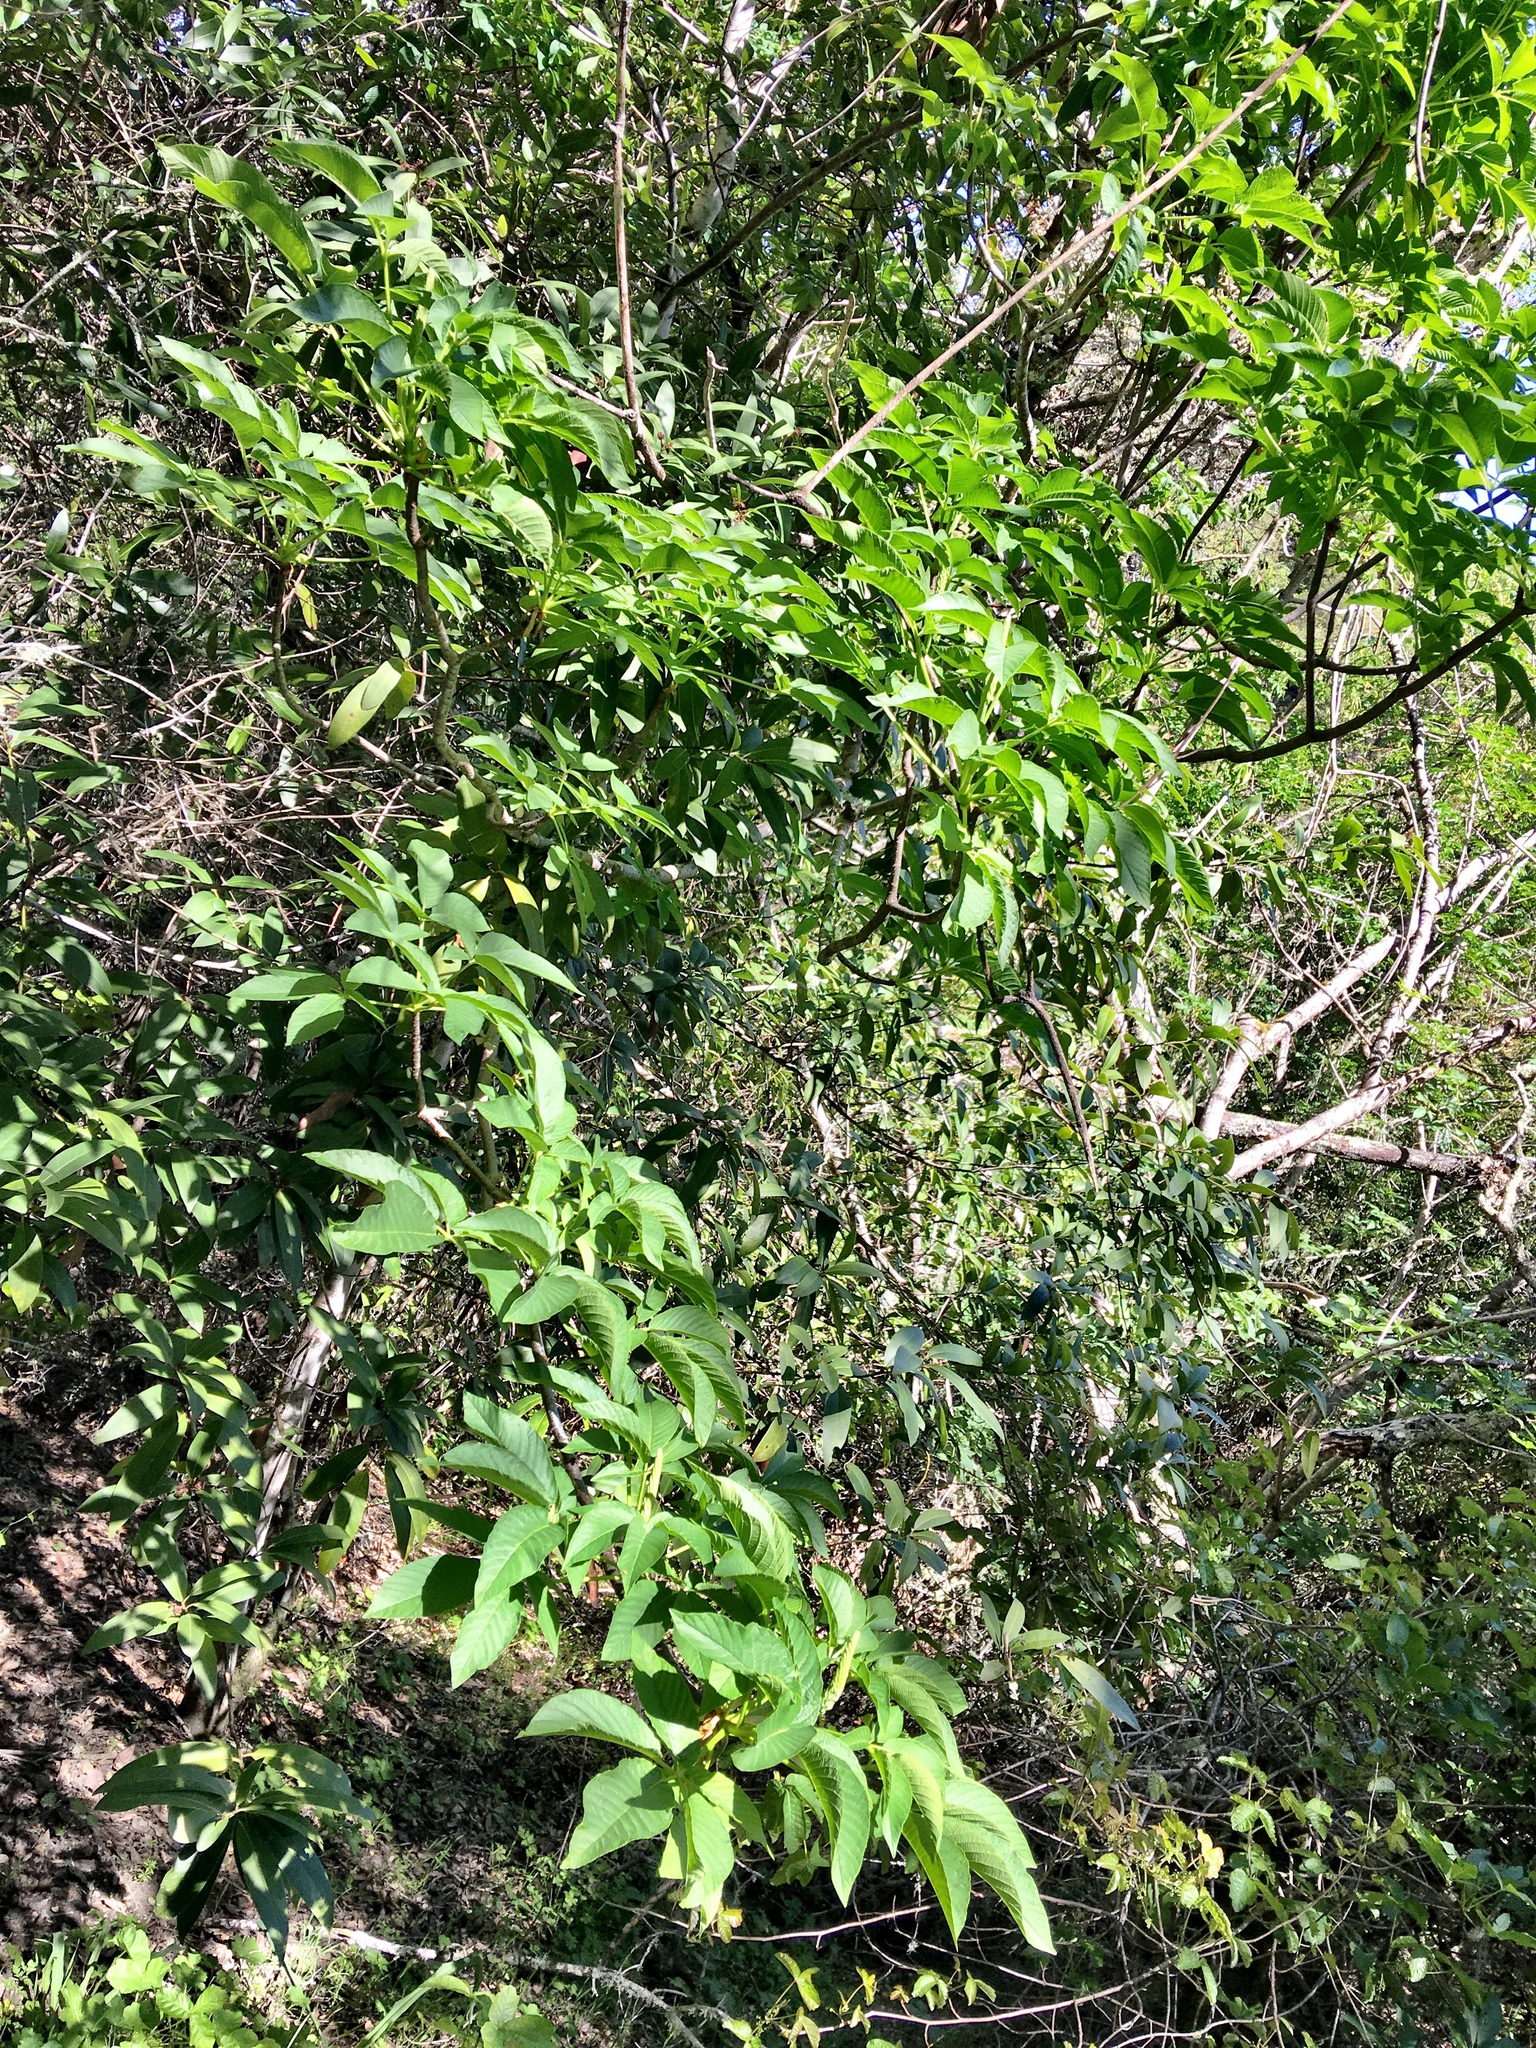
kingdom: Plantae
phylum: Tracheophyta
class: Magnoliopsida
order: Sapindales
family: Sapindaceae
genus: Aesculus
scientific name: Aesculus californica
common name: California buckeye
